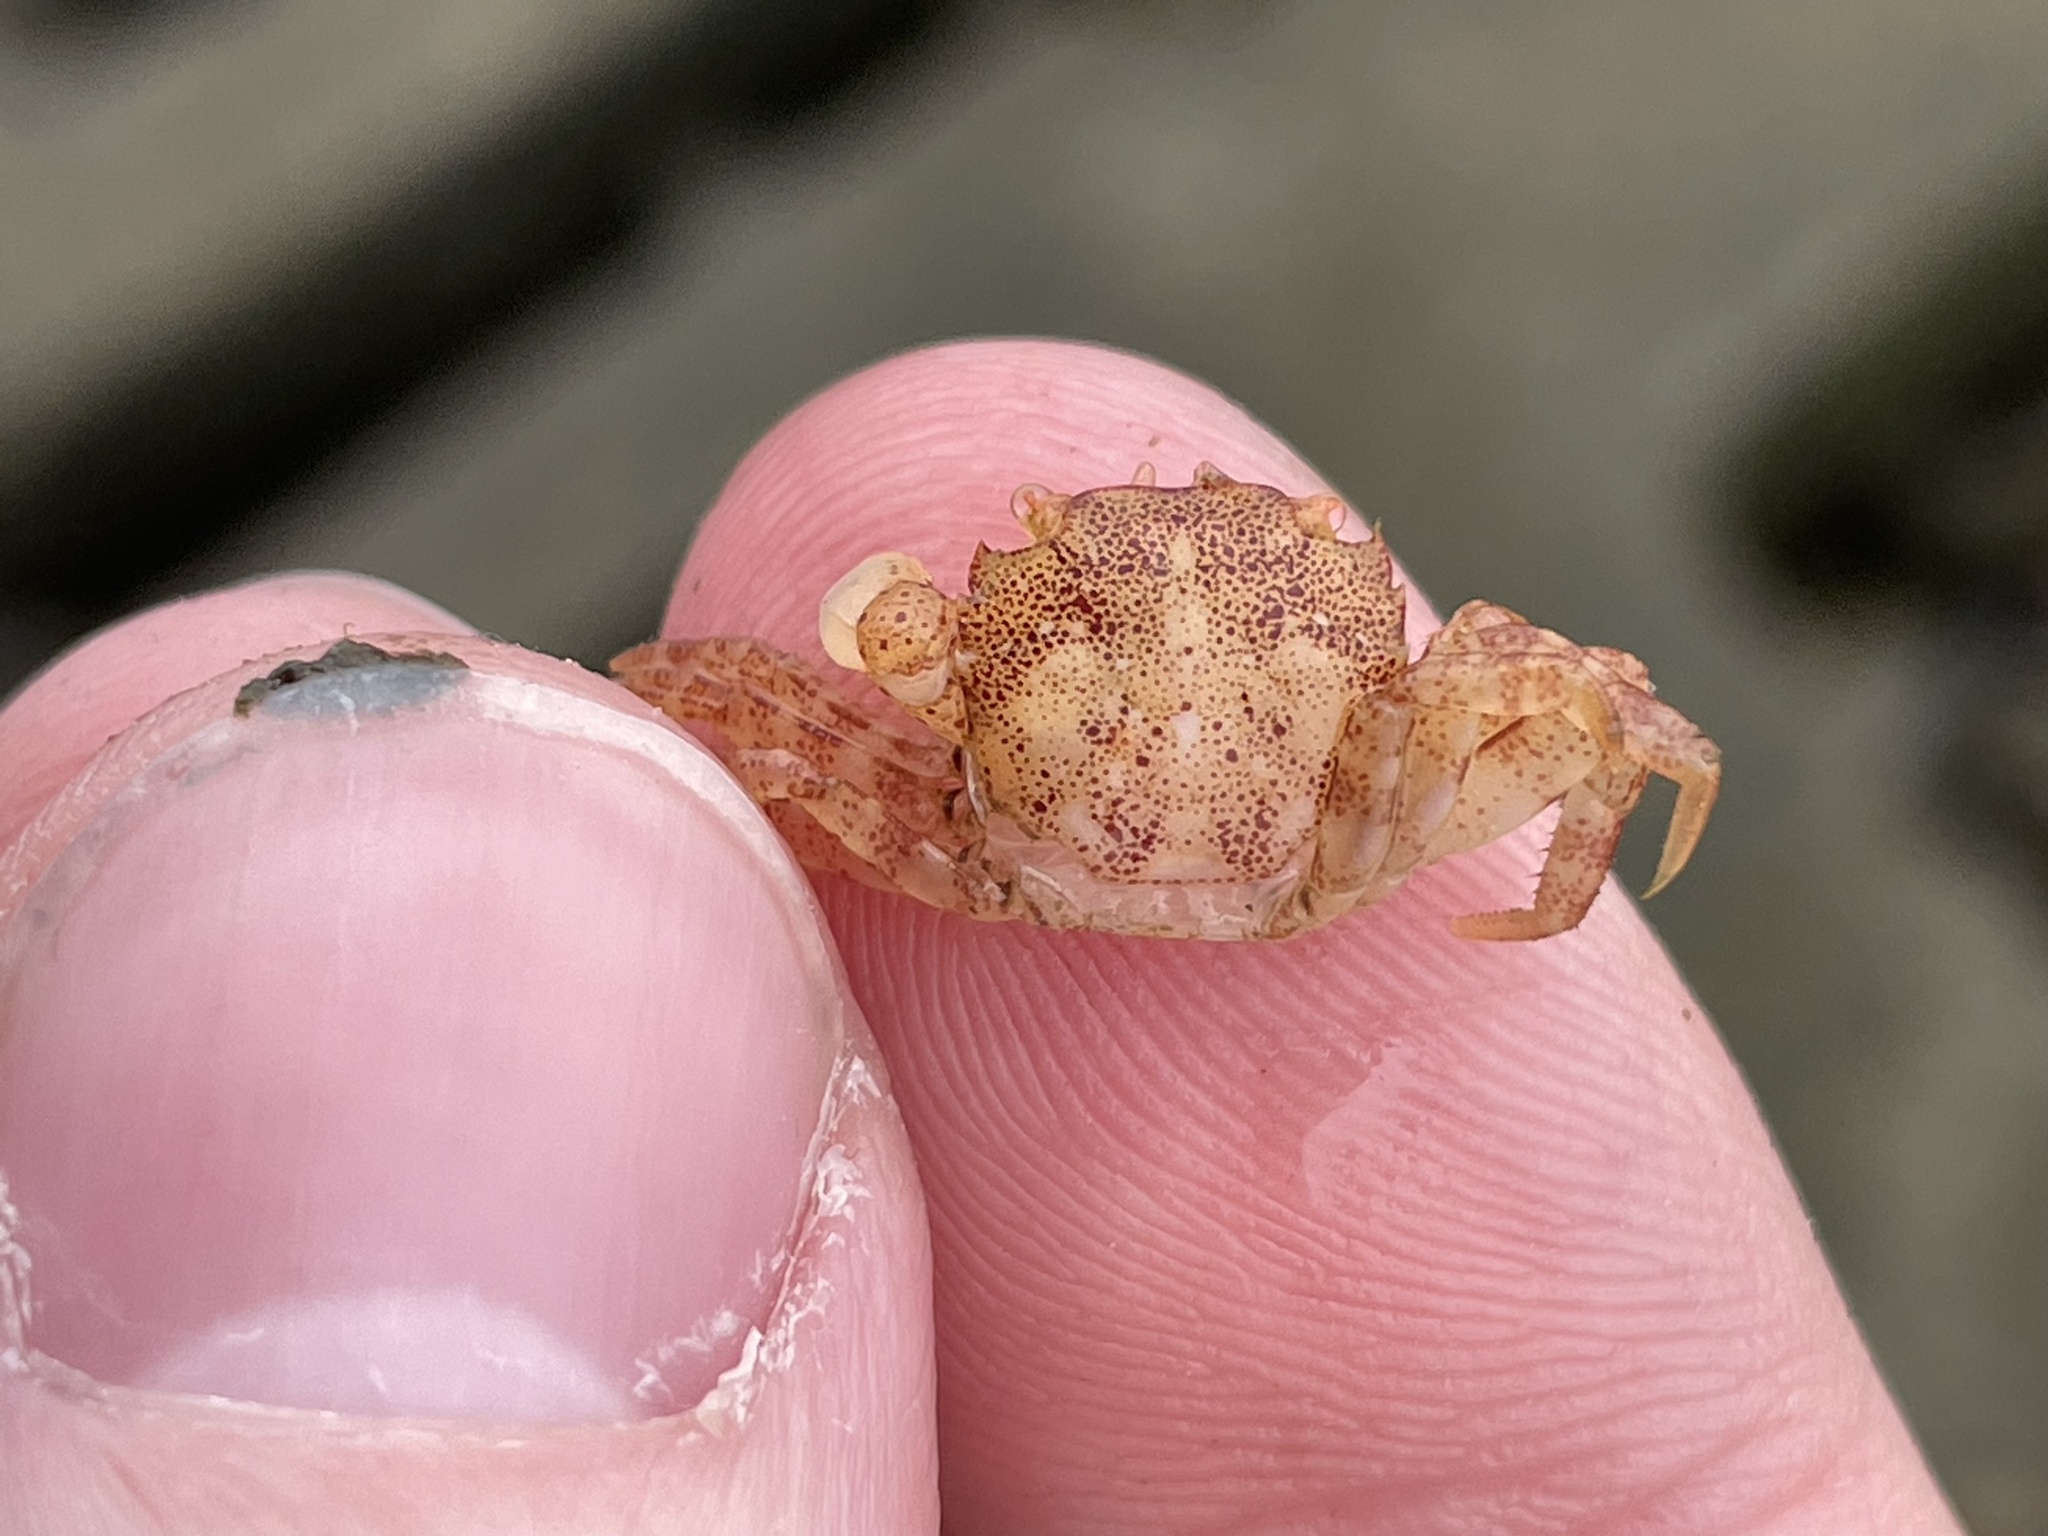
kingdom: Animalia
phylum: Arthropoda
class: Malacostraca
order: Decapoda
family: Varunidae
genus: Hemigrapsus
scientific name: Hemigrapsus sanguineus
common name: Asian shore crab
